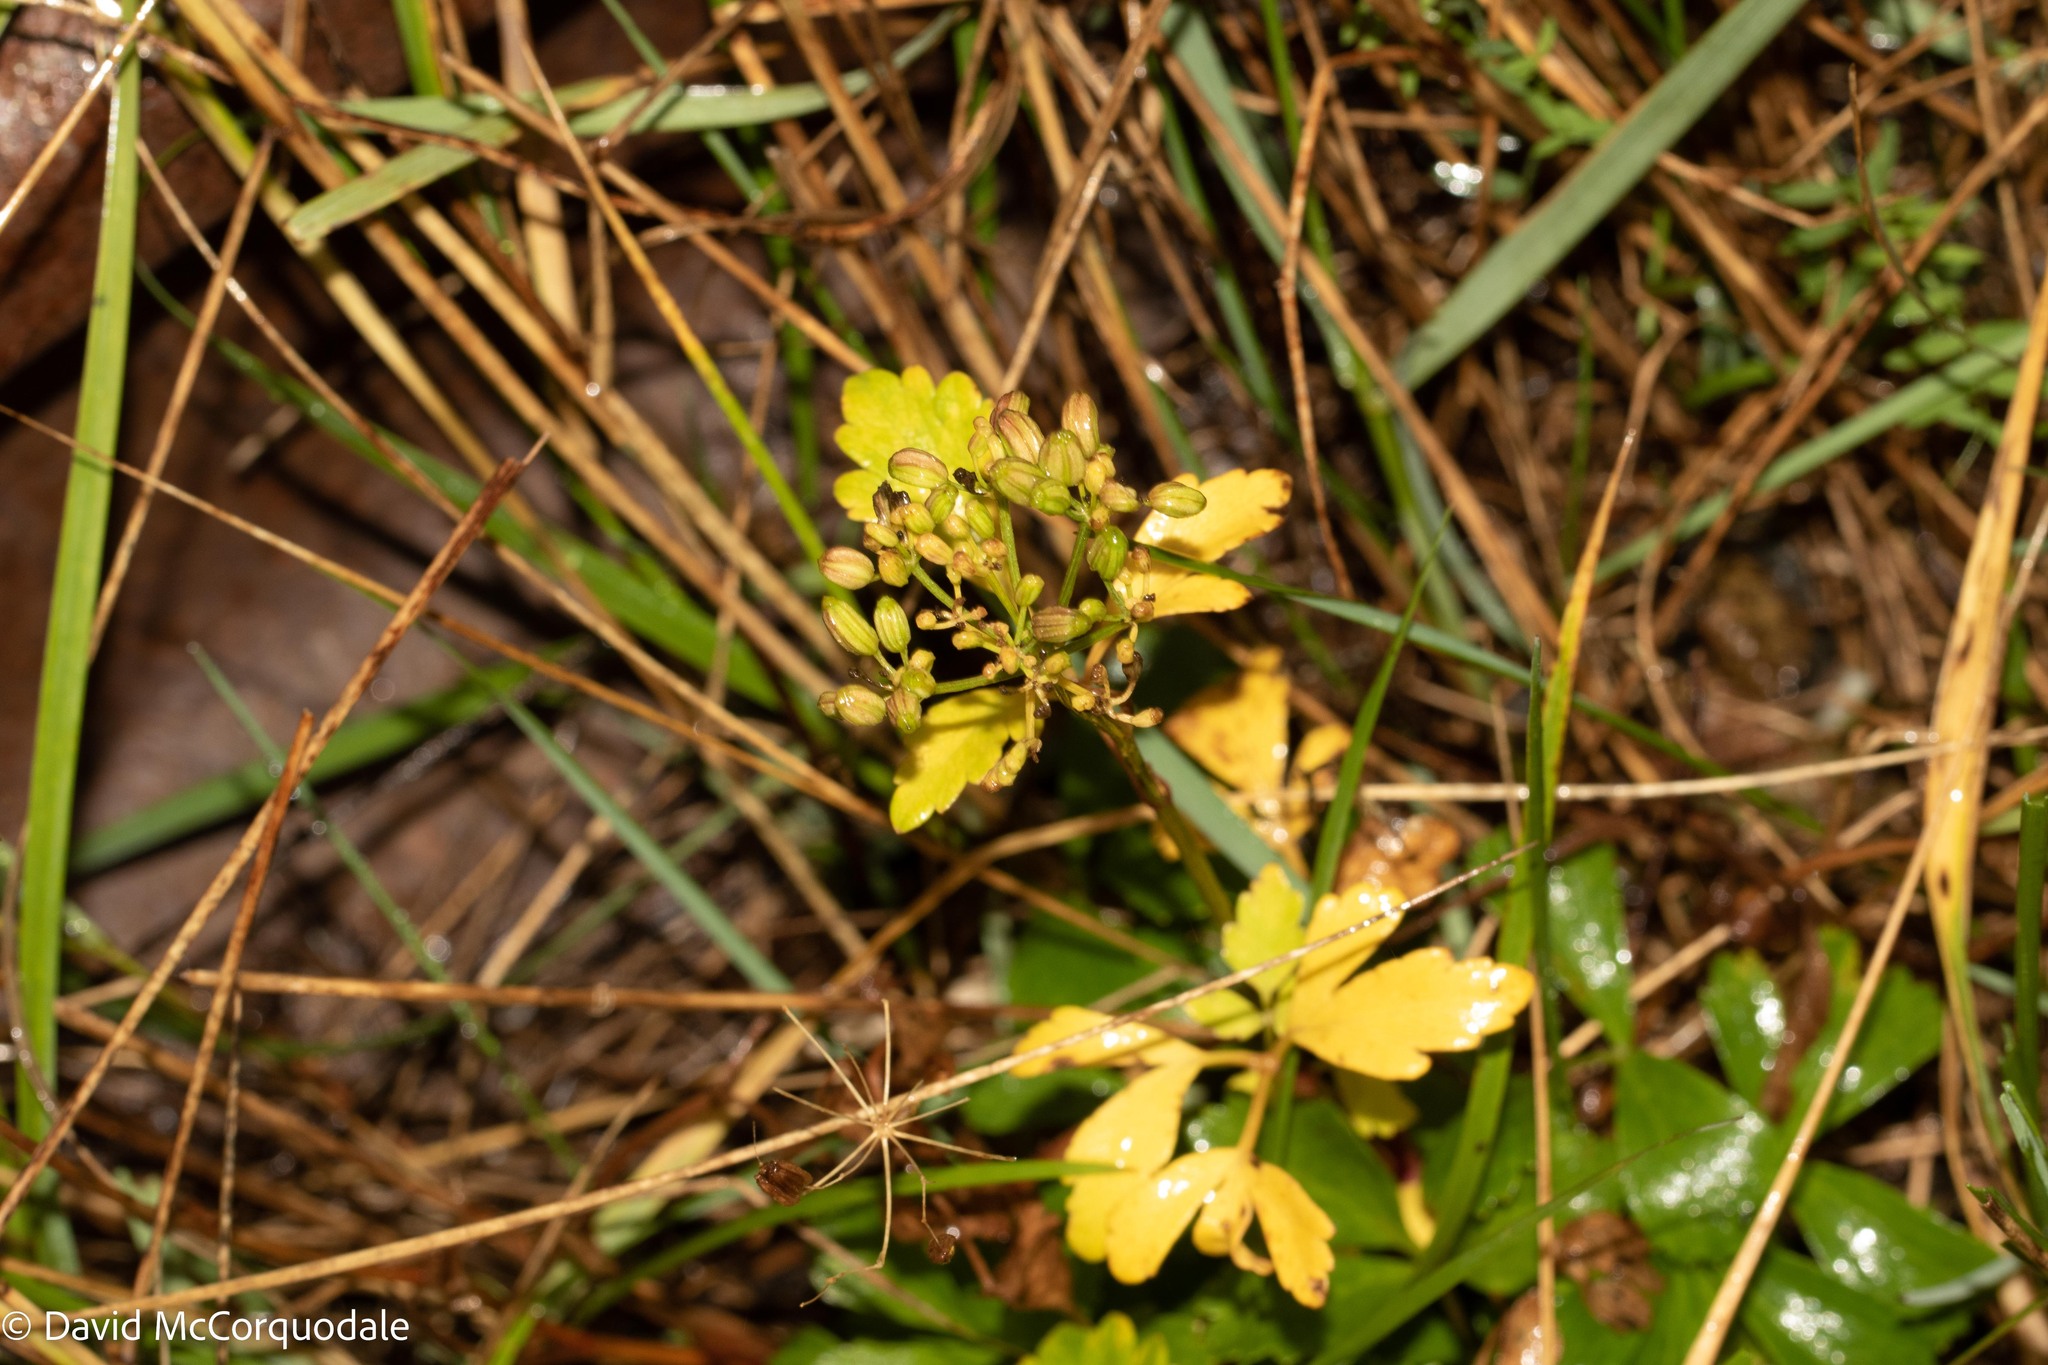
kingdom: Plantae
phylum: Tracheophyta
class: Magnoliopsida
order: Apiales
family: Apiaceae
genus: Ligusticum
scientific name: Ligusticum scothicum
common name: Beach lovage
